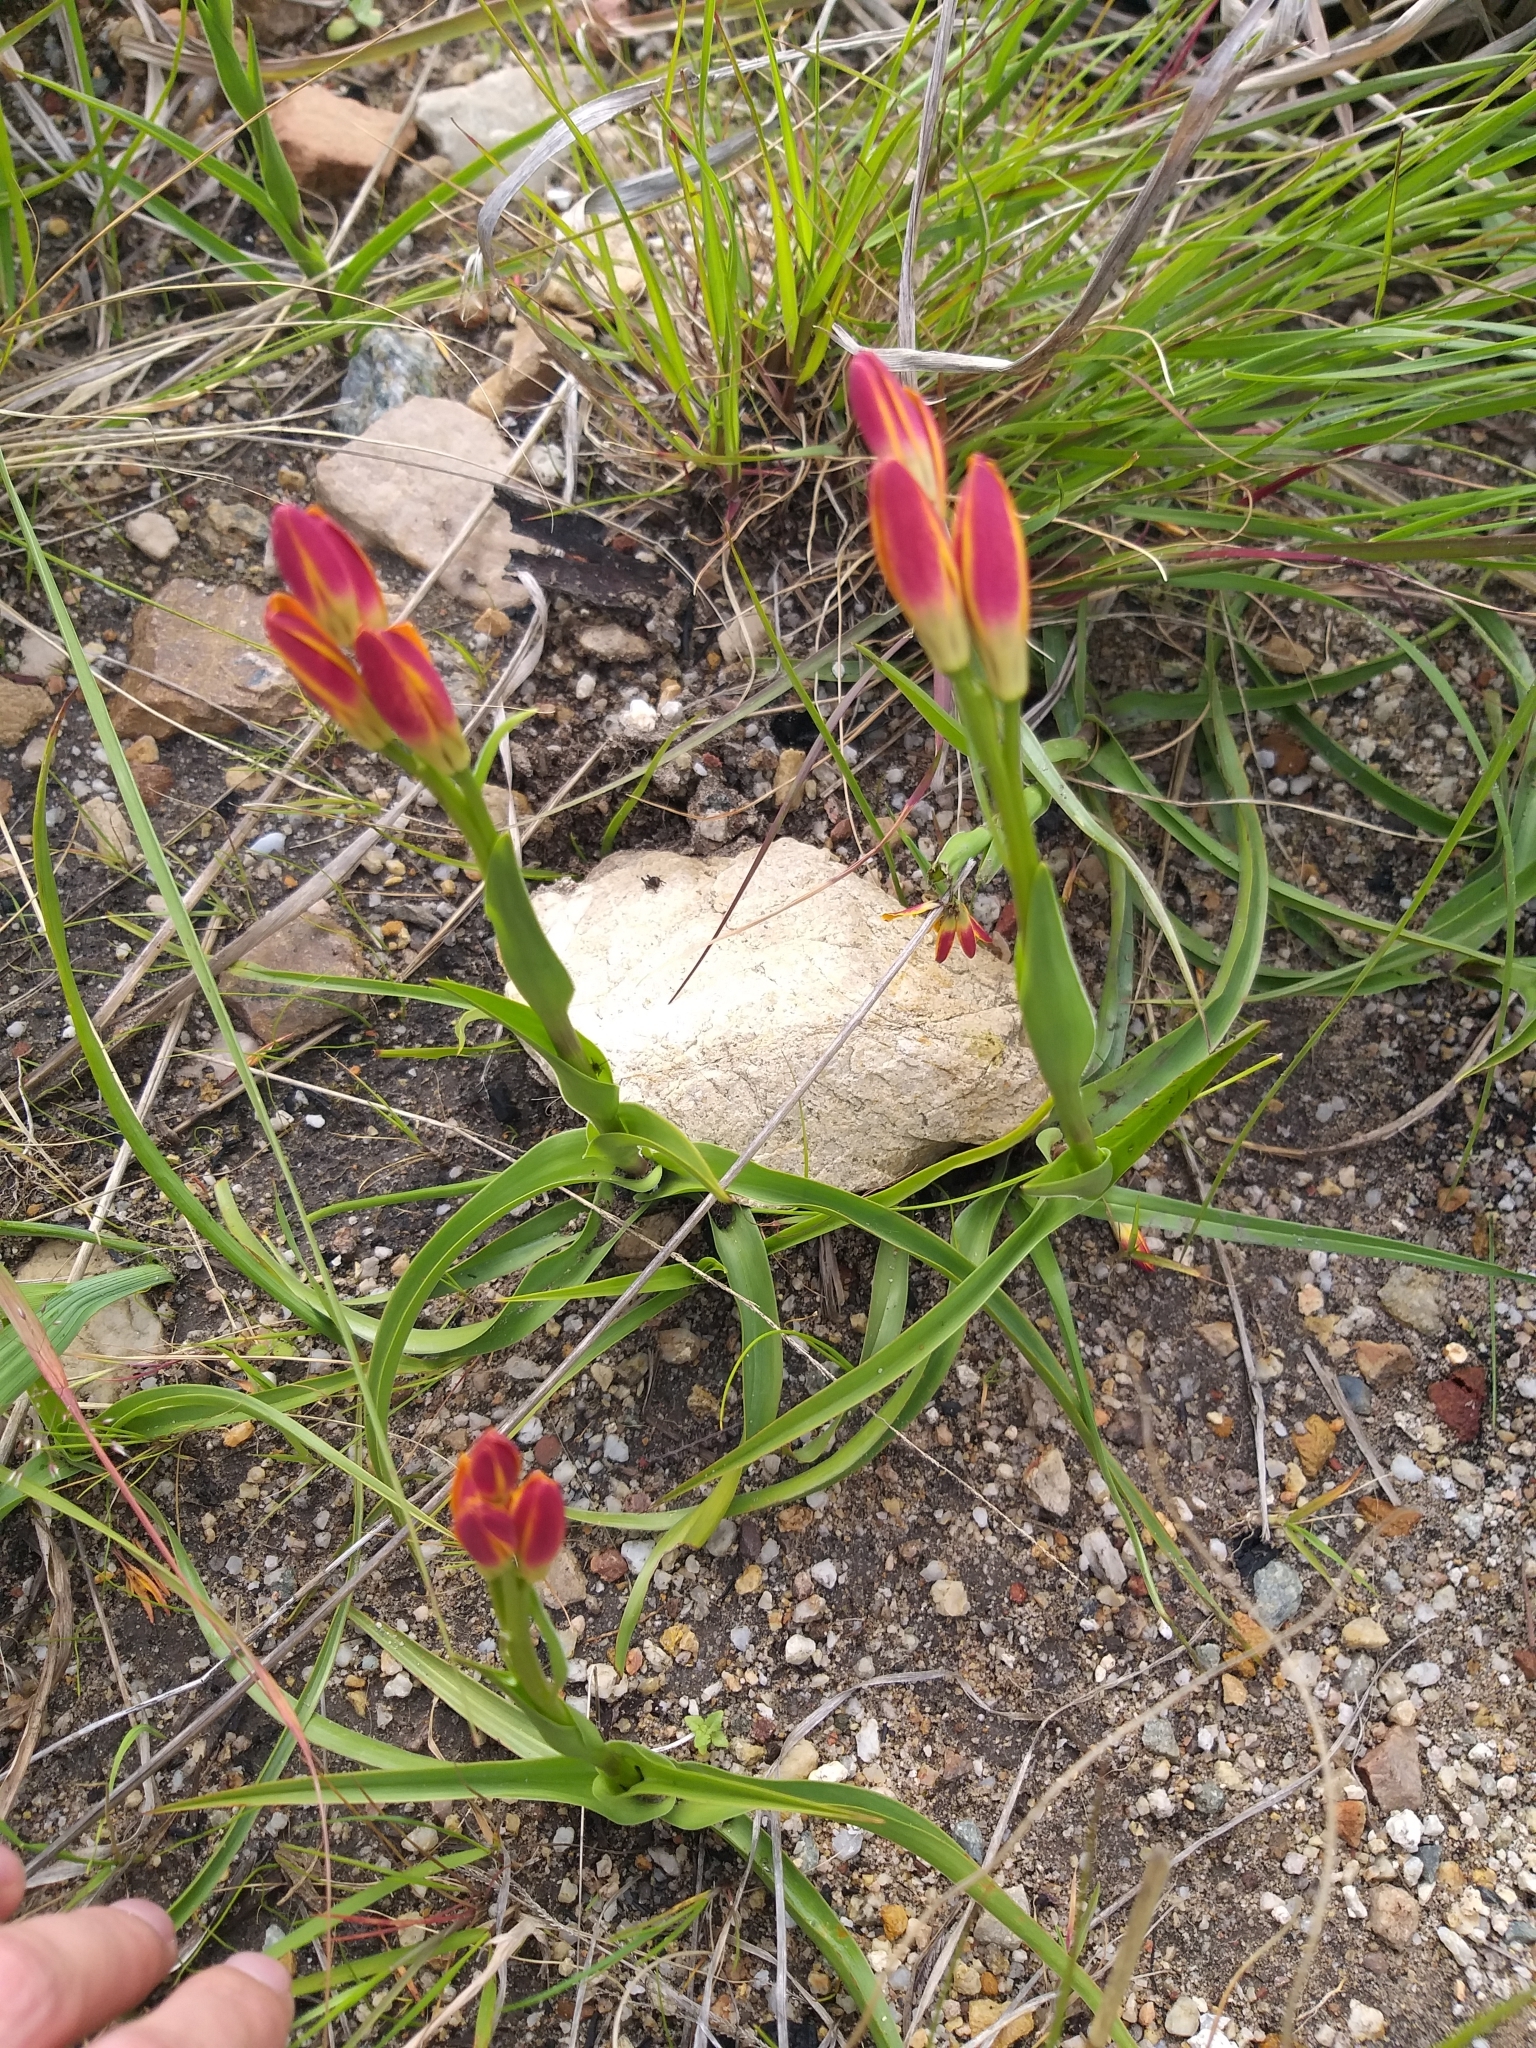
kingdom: Plantae
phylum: Tracheophyta
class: Liliopsida
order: Liliales
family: Colchicaceae
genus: Baeometra
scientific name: Baeometra uniflora
